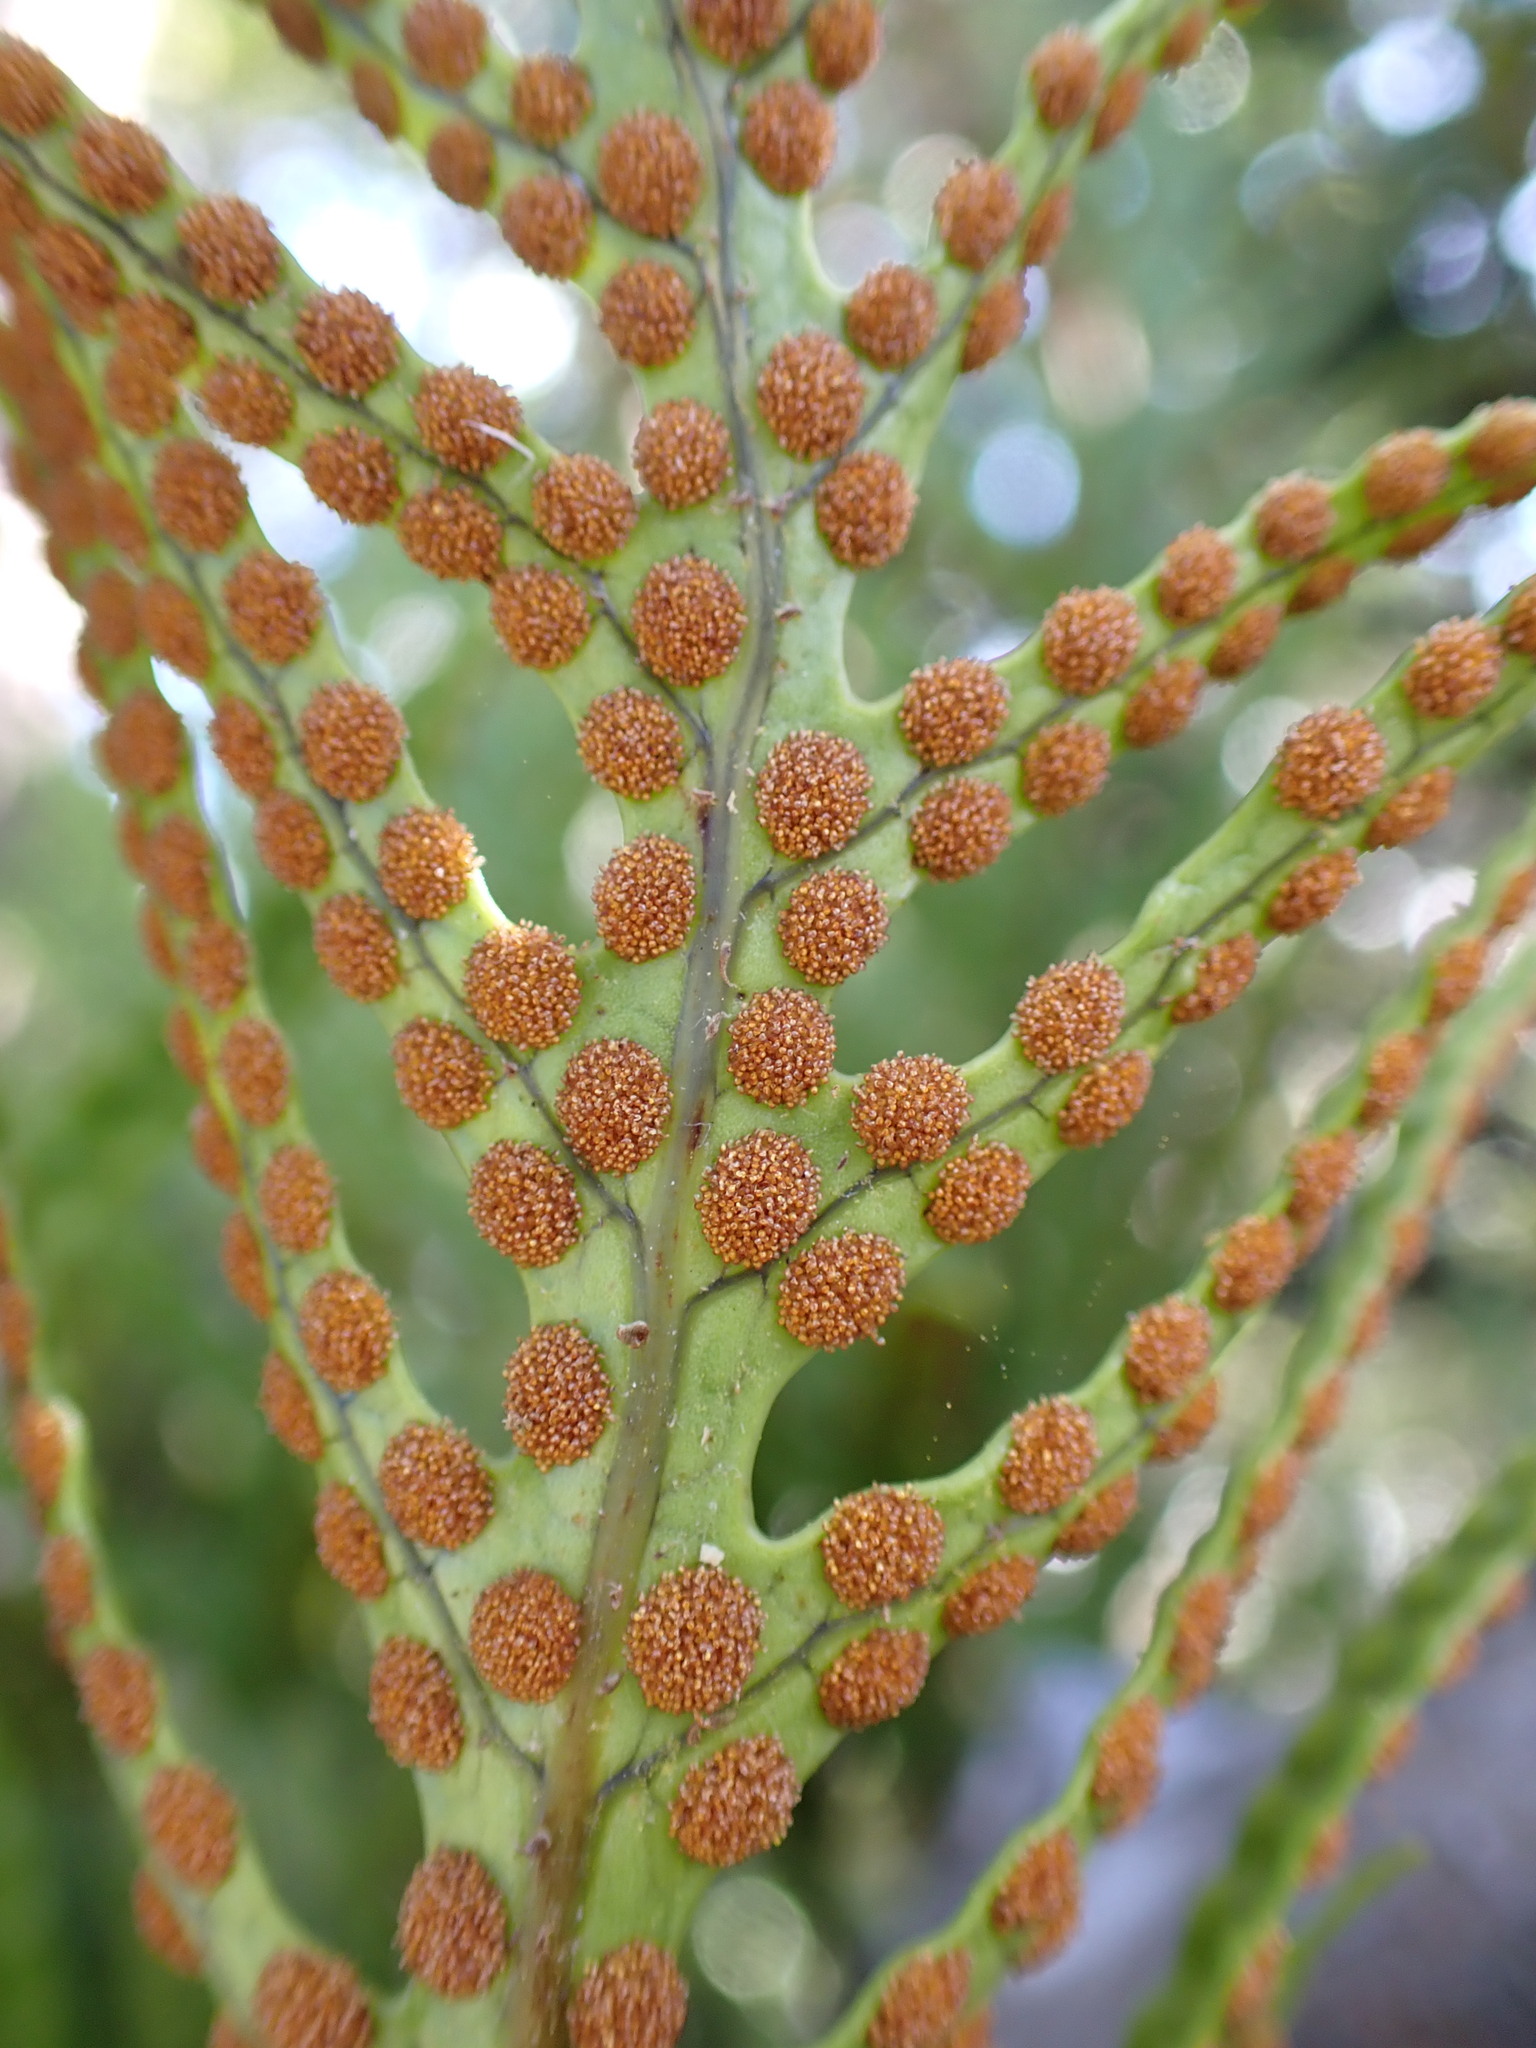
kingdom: Plantae
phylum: Tracheophyta
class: Polypodiopsida
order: Polypodiales
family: Polypodiaceae
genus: Lecanopteris
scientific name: Lecanopteris pustulata
